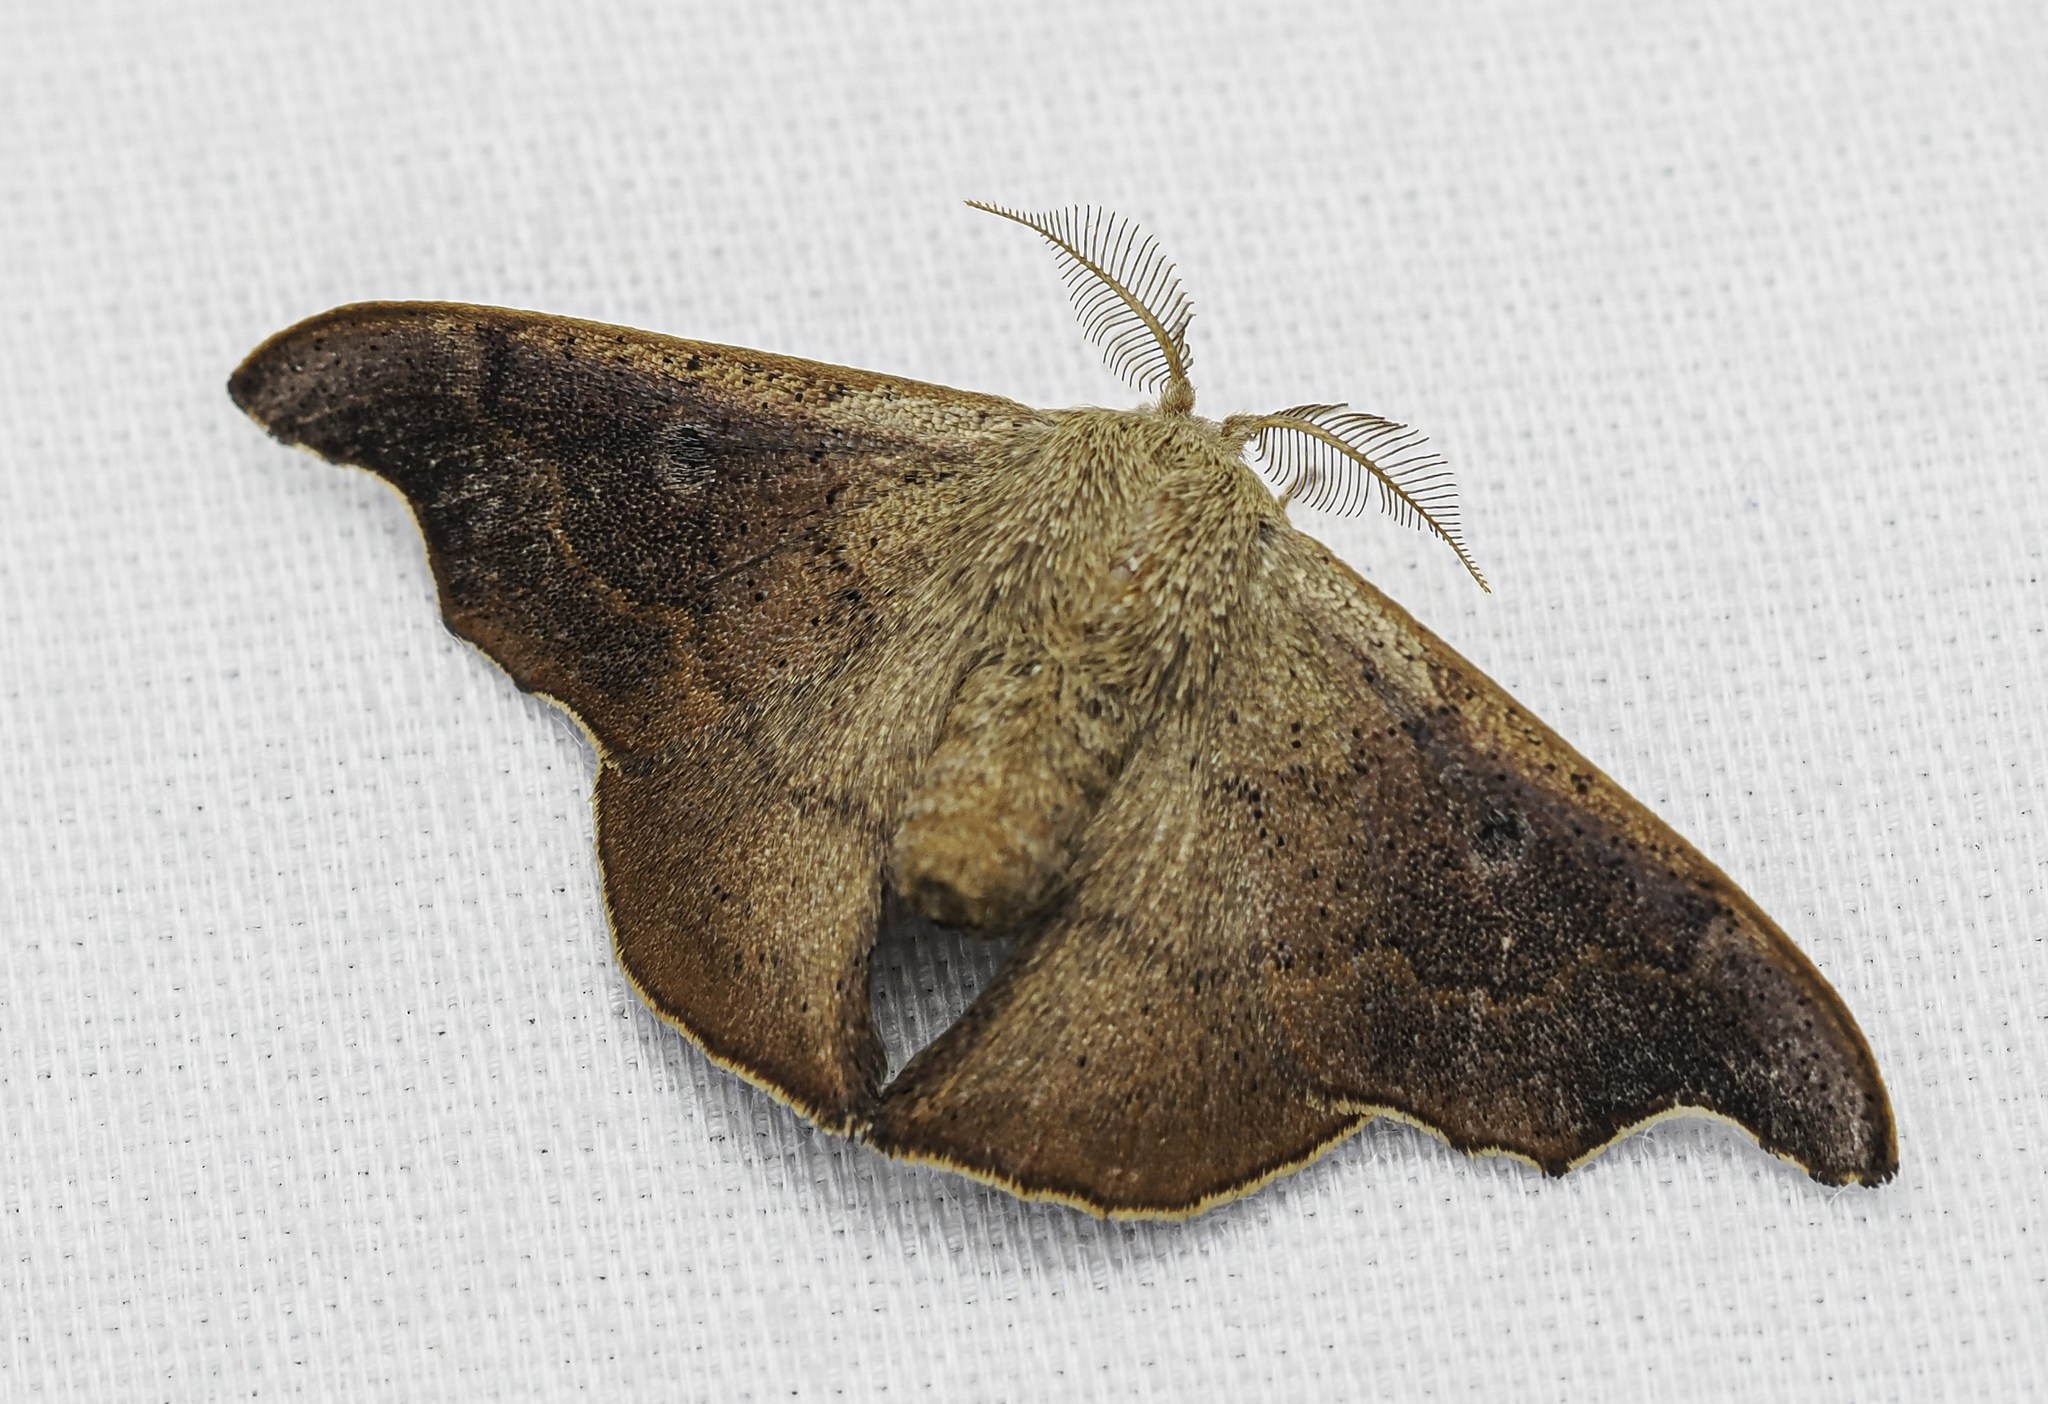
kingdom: Animalia
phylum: Arthropoda
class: Insecta
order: Lepidoptera
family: Mimallonidae
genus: Lacosoma
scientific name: Lacosoma chiridota
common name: Scalloped sack-bearer moth
